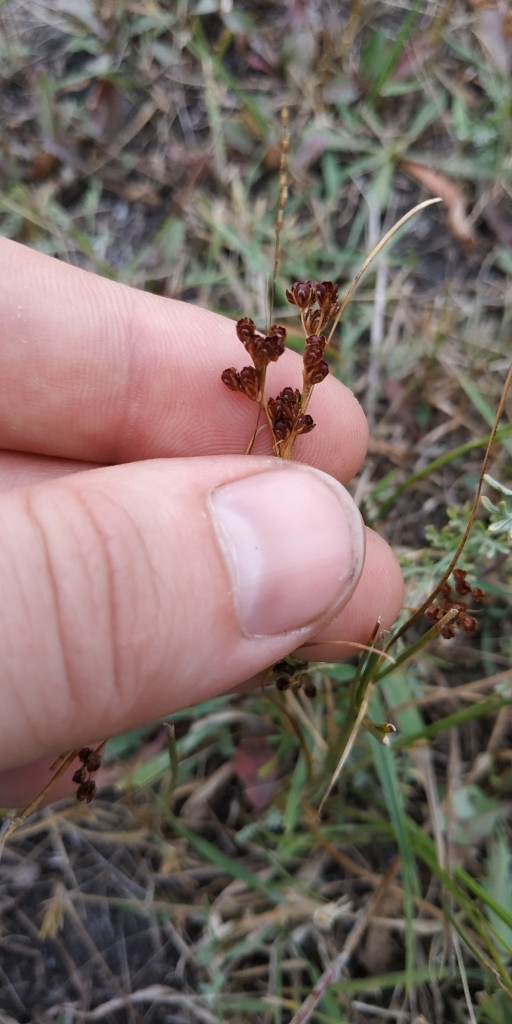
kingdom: Plantae
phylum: Tracheophyta
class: Liliopsida
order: Poales
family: Juncaceae
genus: Juncus
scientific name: Juncus compressus
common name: Round-fruited rush
